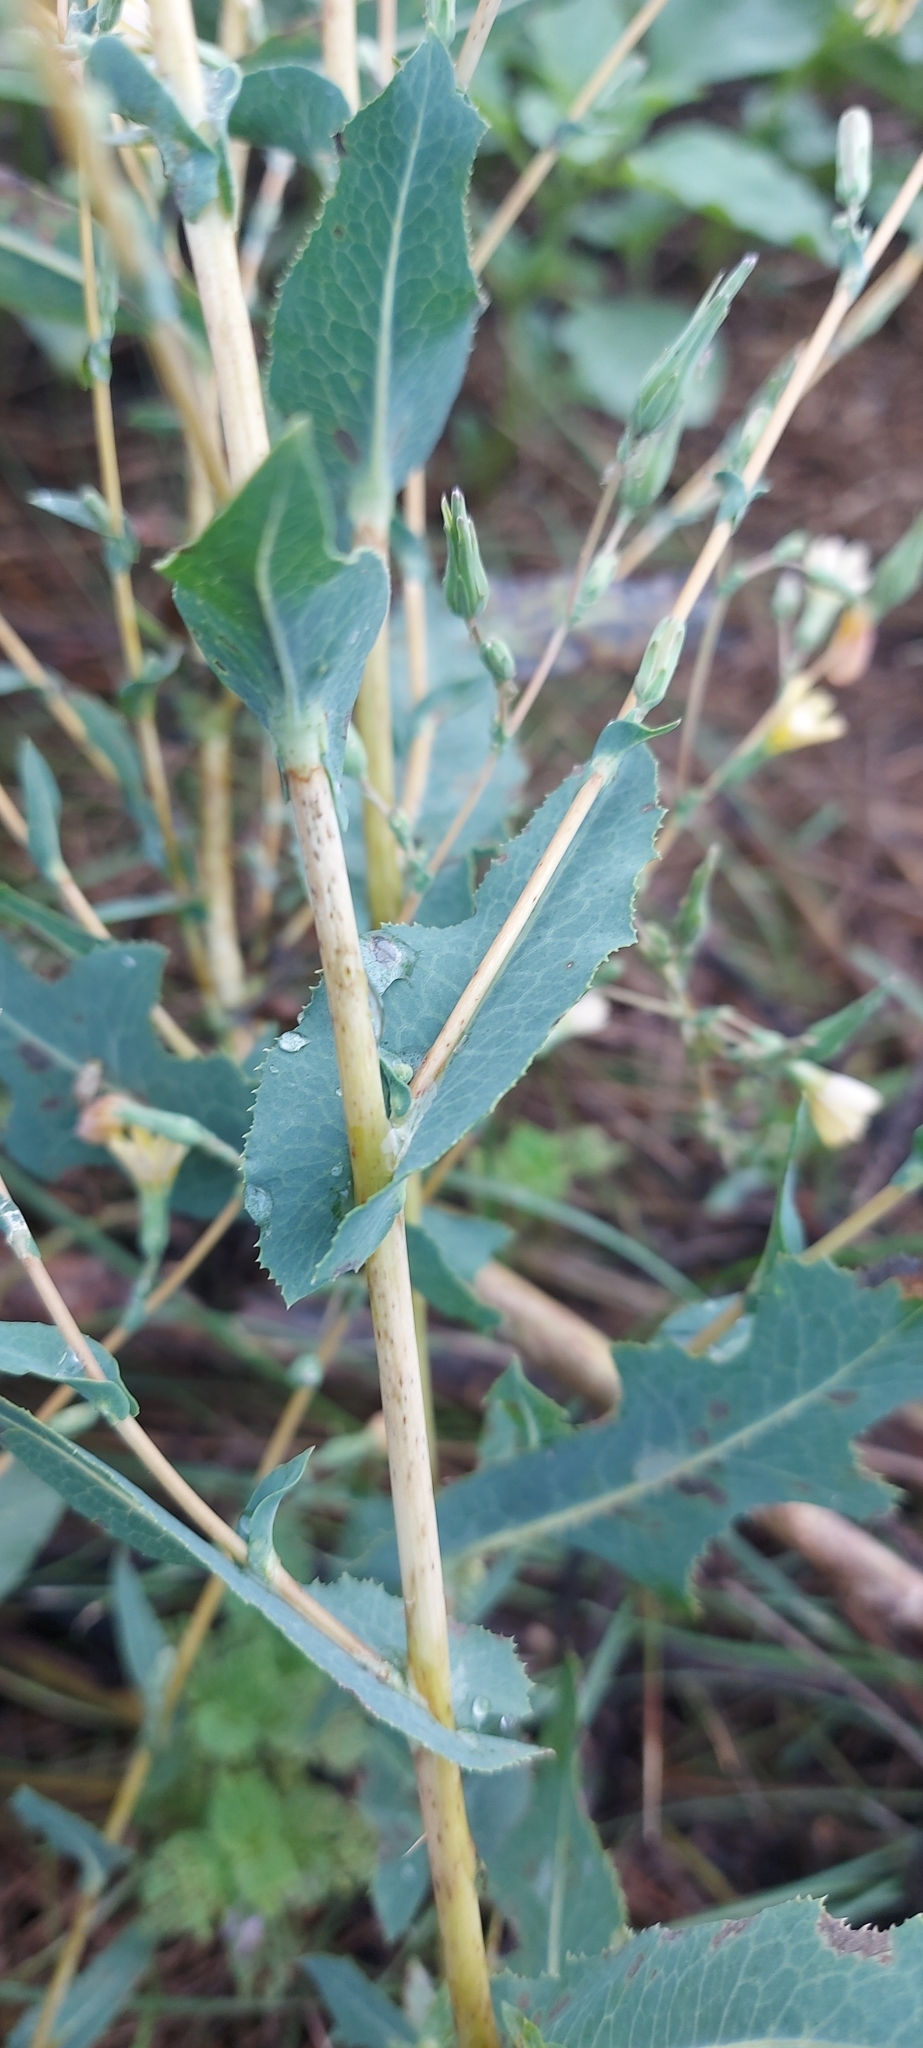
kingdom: Plantae
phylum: Tracheophyta
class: Magnoliopsida
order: Asterales
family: Asteraceae
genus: Lactuca
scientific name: Lactuca serriola
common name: Prickly lettuce
